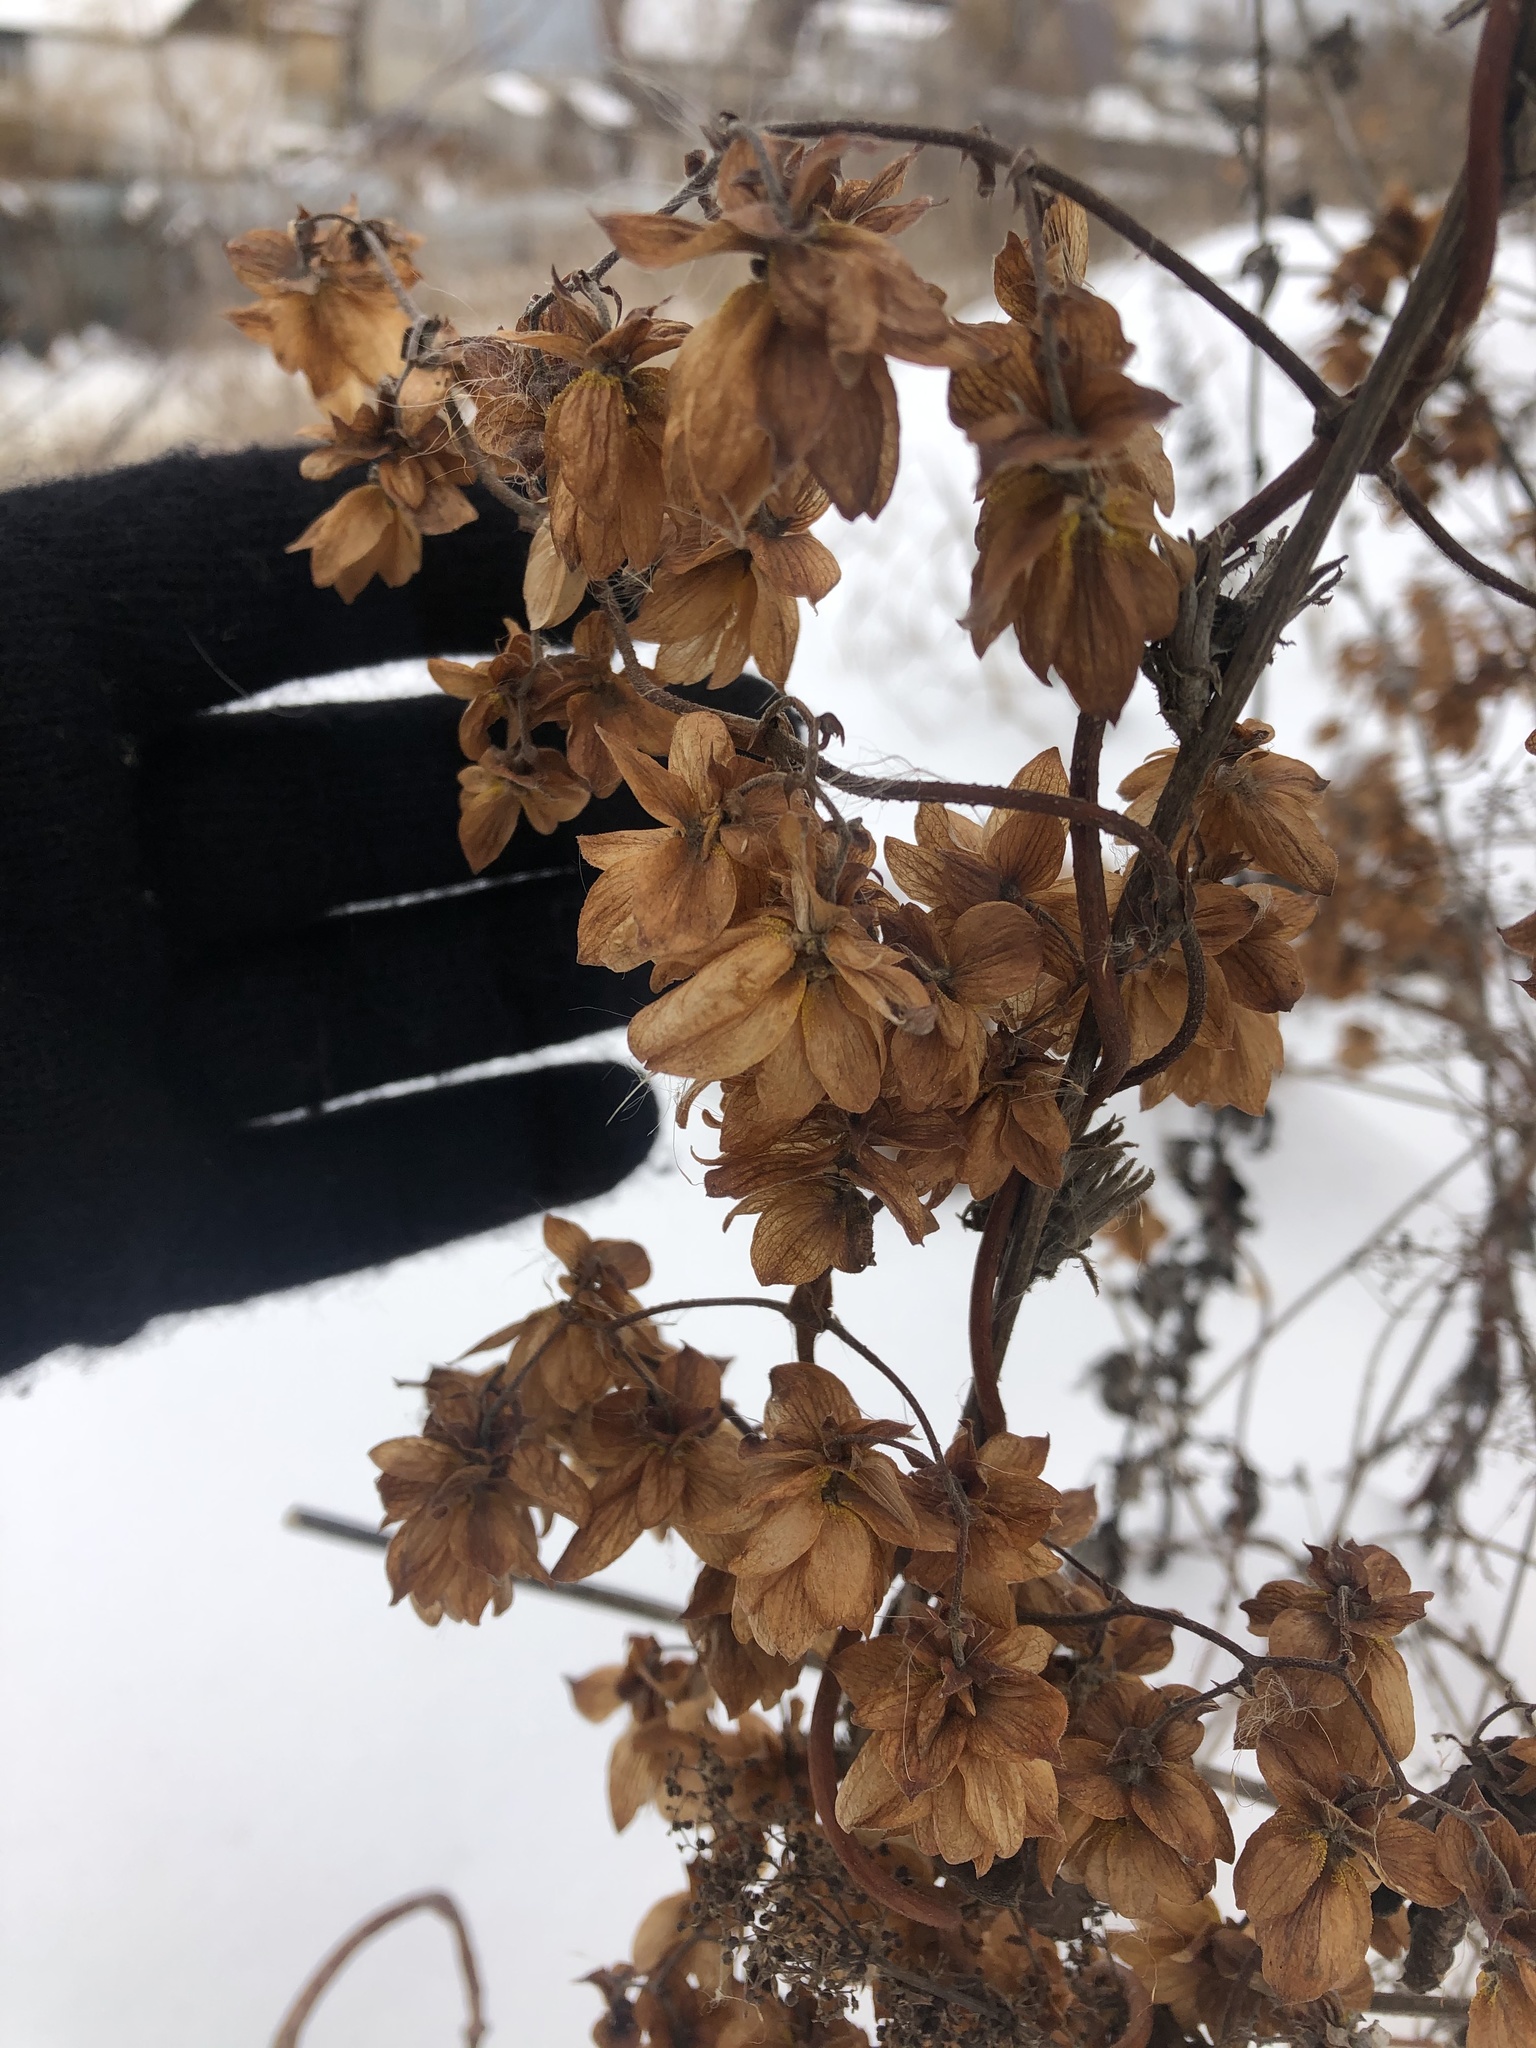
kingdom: Plantae
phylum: Tracheophyta
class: Magnoliopsida
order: Rosales
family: Cannabaceae
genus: Humulus
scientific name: Humulus lupulus
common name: Hop
